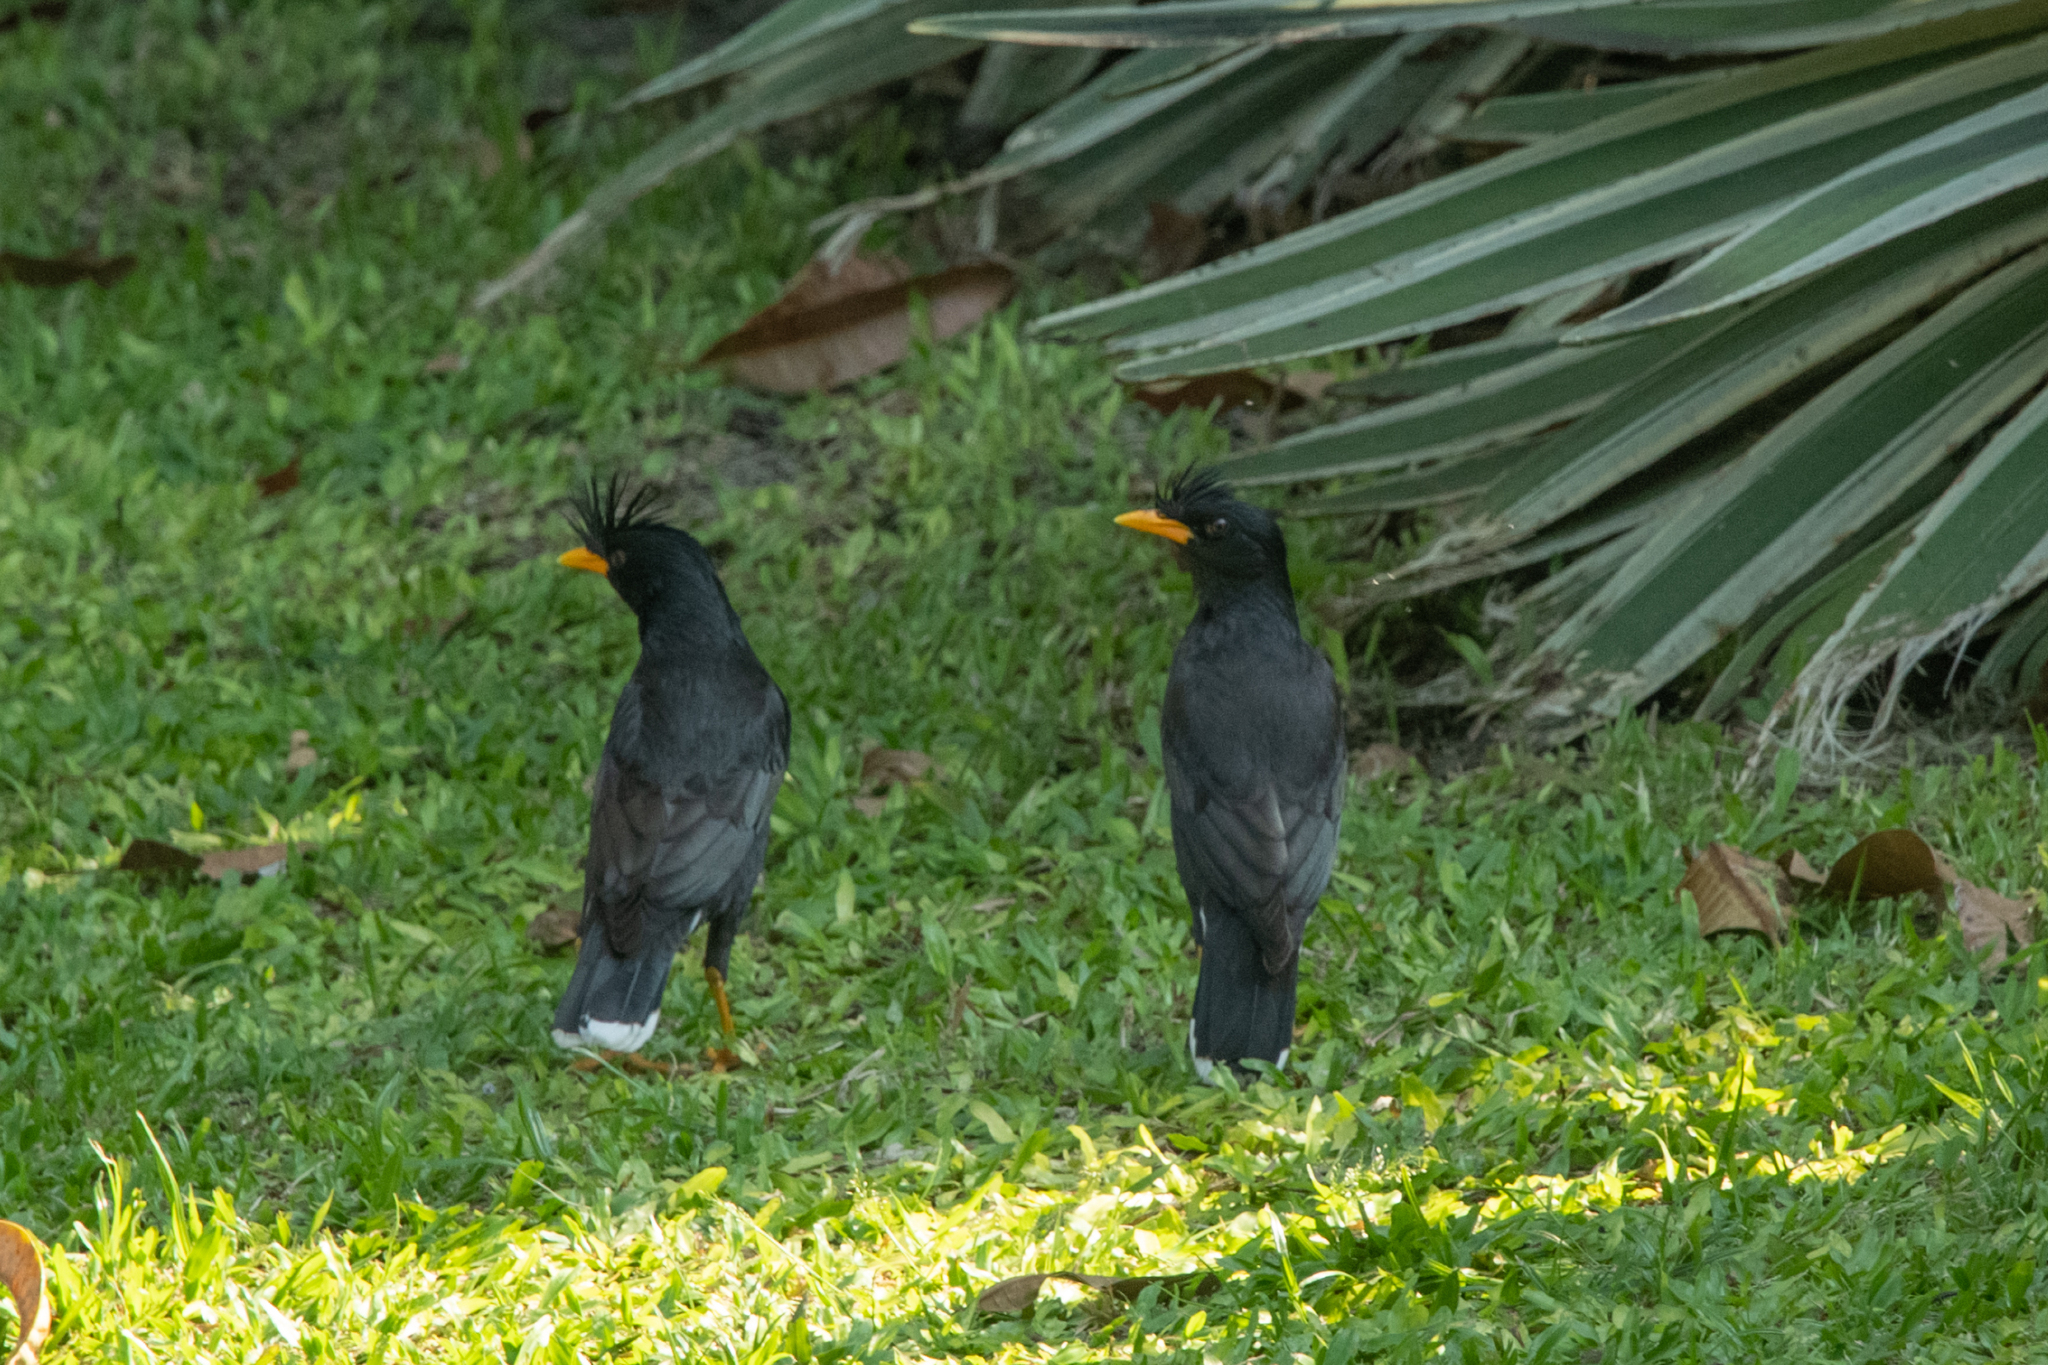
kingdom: Animalia
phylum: Chordata
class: Aves
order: Passeriformes
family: Sturnidae
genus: Acridotheres
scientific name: Acridotheres grandis
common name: Great myna
